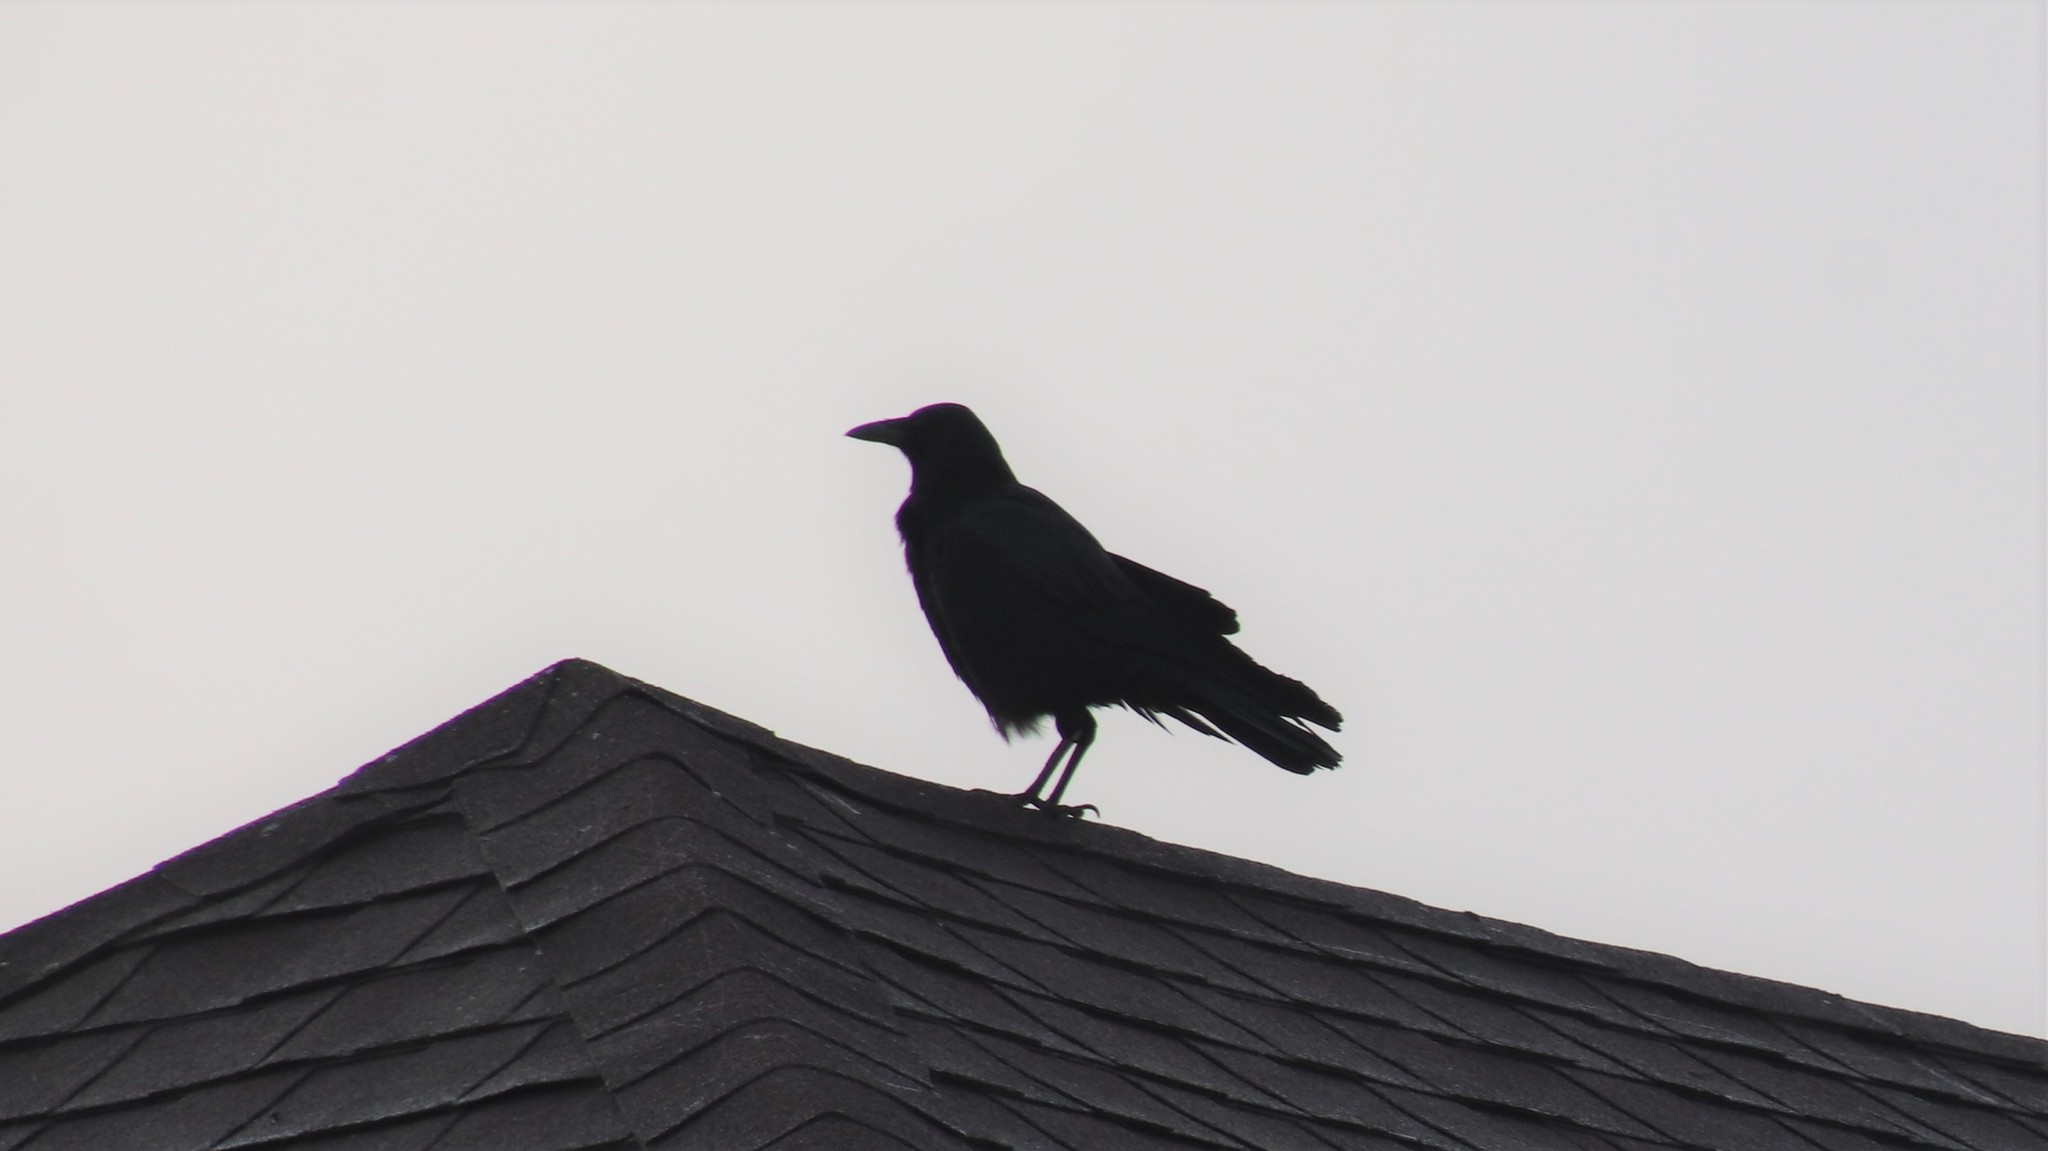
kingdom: Animalia
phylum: Chordata
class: Aves
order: Passeriformes
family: Corvidae
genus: Corvus
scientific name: Corvus brachyrhynchos
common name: American crow
